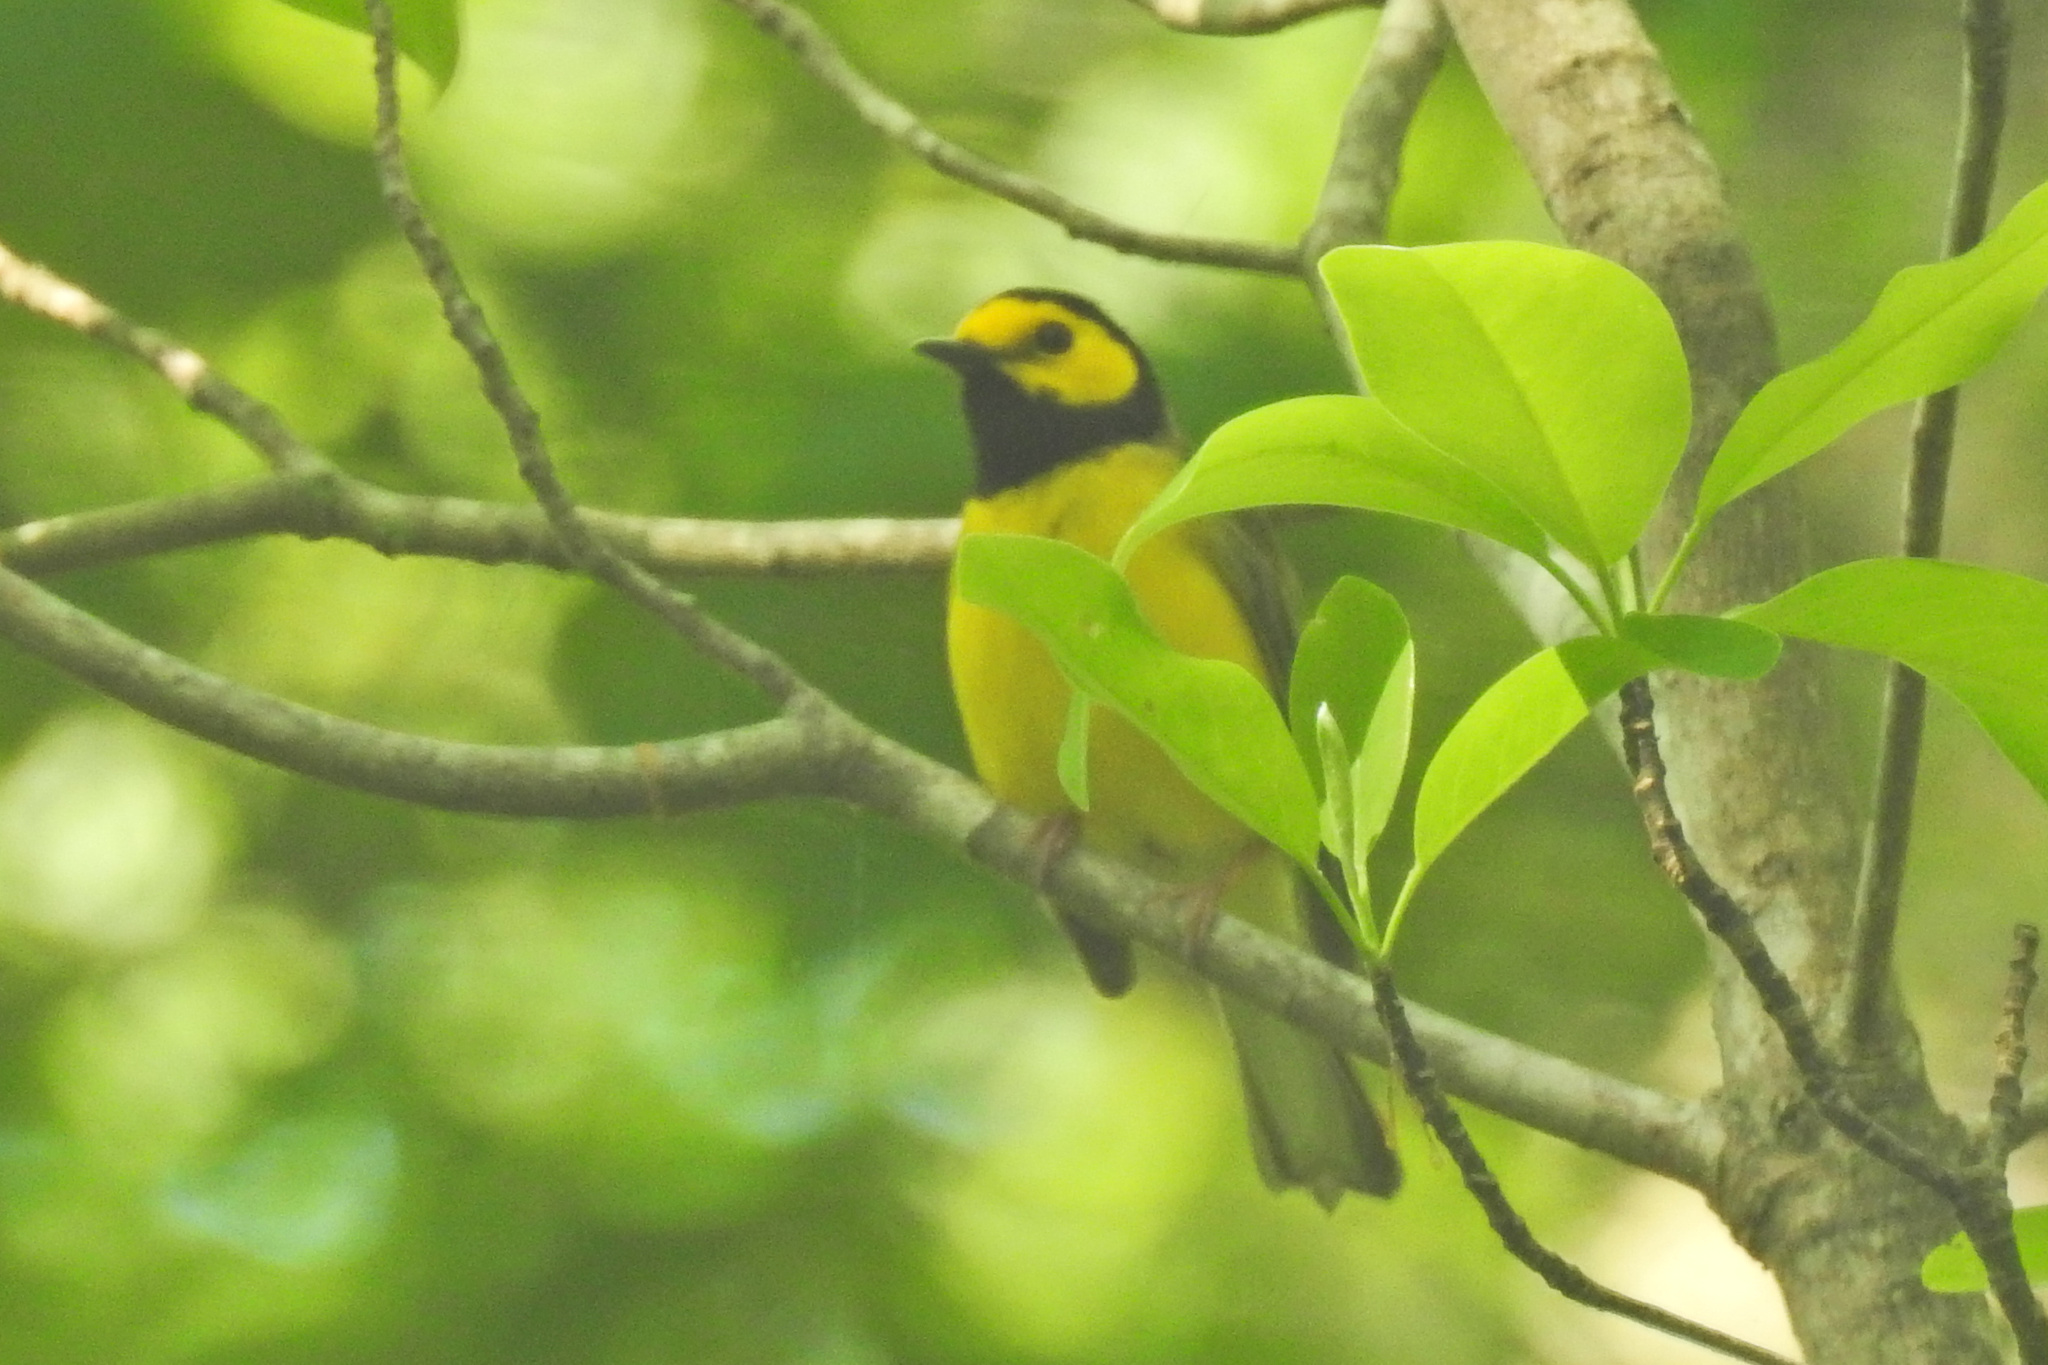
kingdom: Animalia
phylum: Chordata
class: Aves
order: Passeriformes
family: Parulidae
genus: Setophaga
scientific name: Setophaga citrina
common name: Hooded warbler
